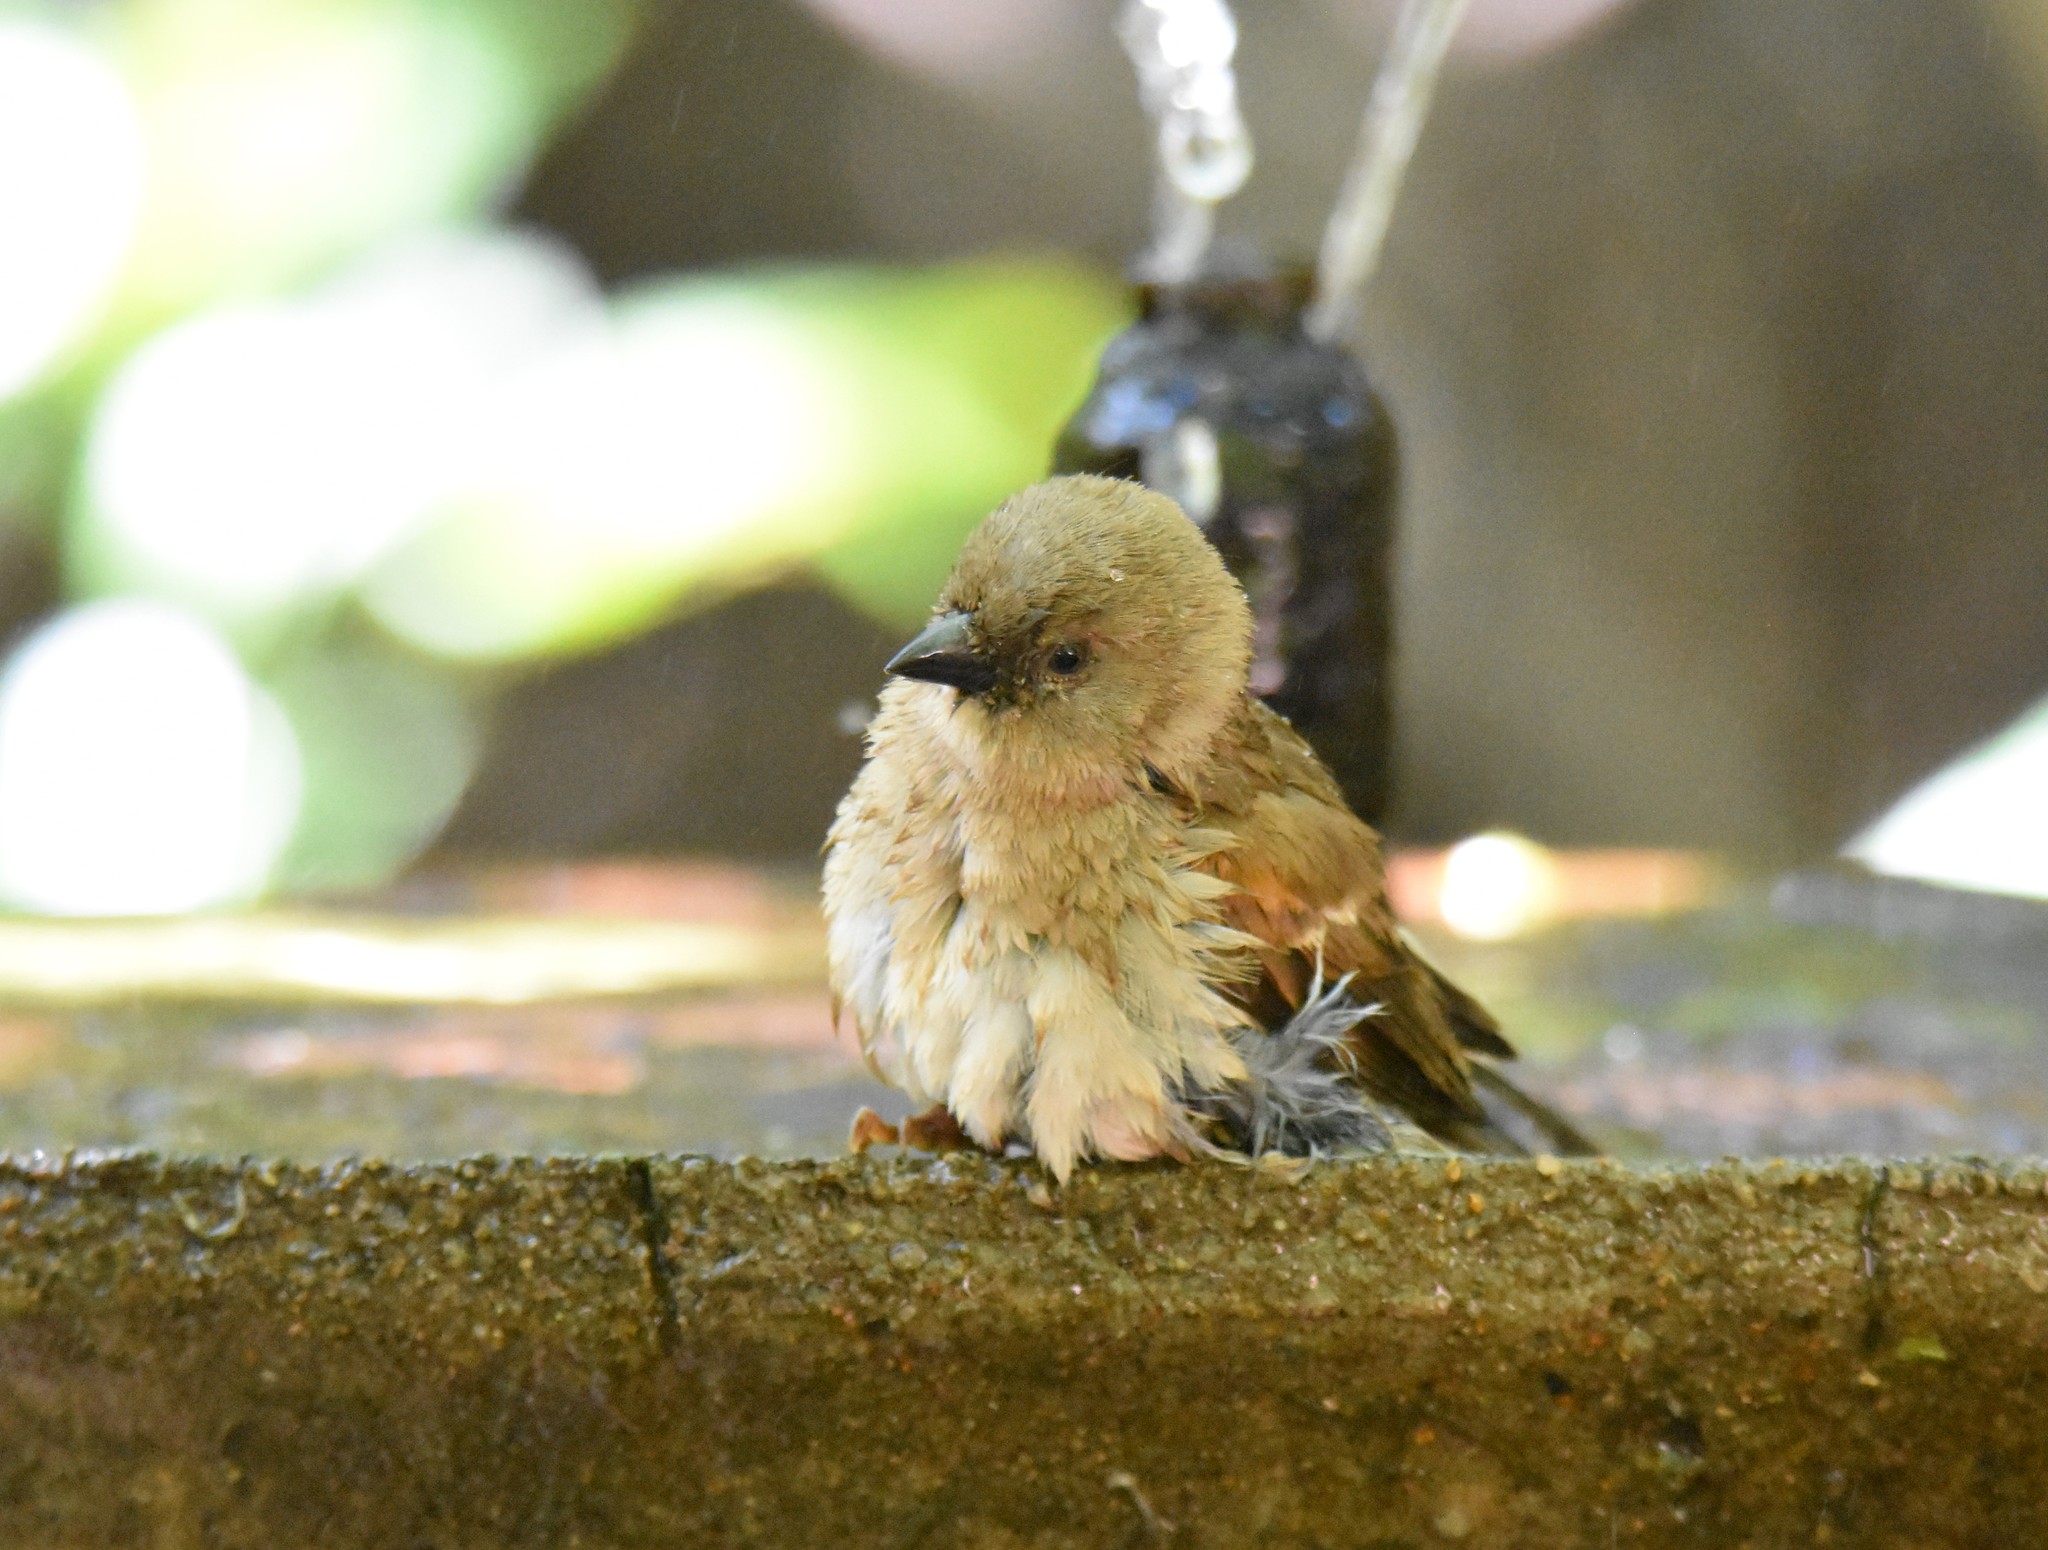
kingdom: Animalia
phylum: Chordata
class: Aves
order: Passeriformes
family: Passeridae
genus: Passer
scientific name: Passer diffusus
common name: Southern grey-headed sparrow
